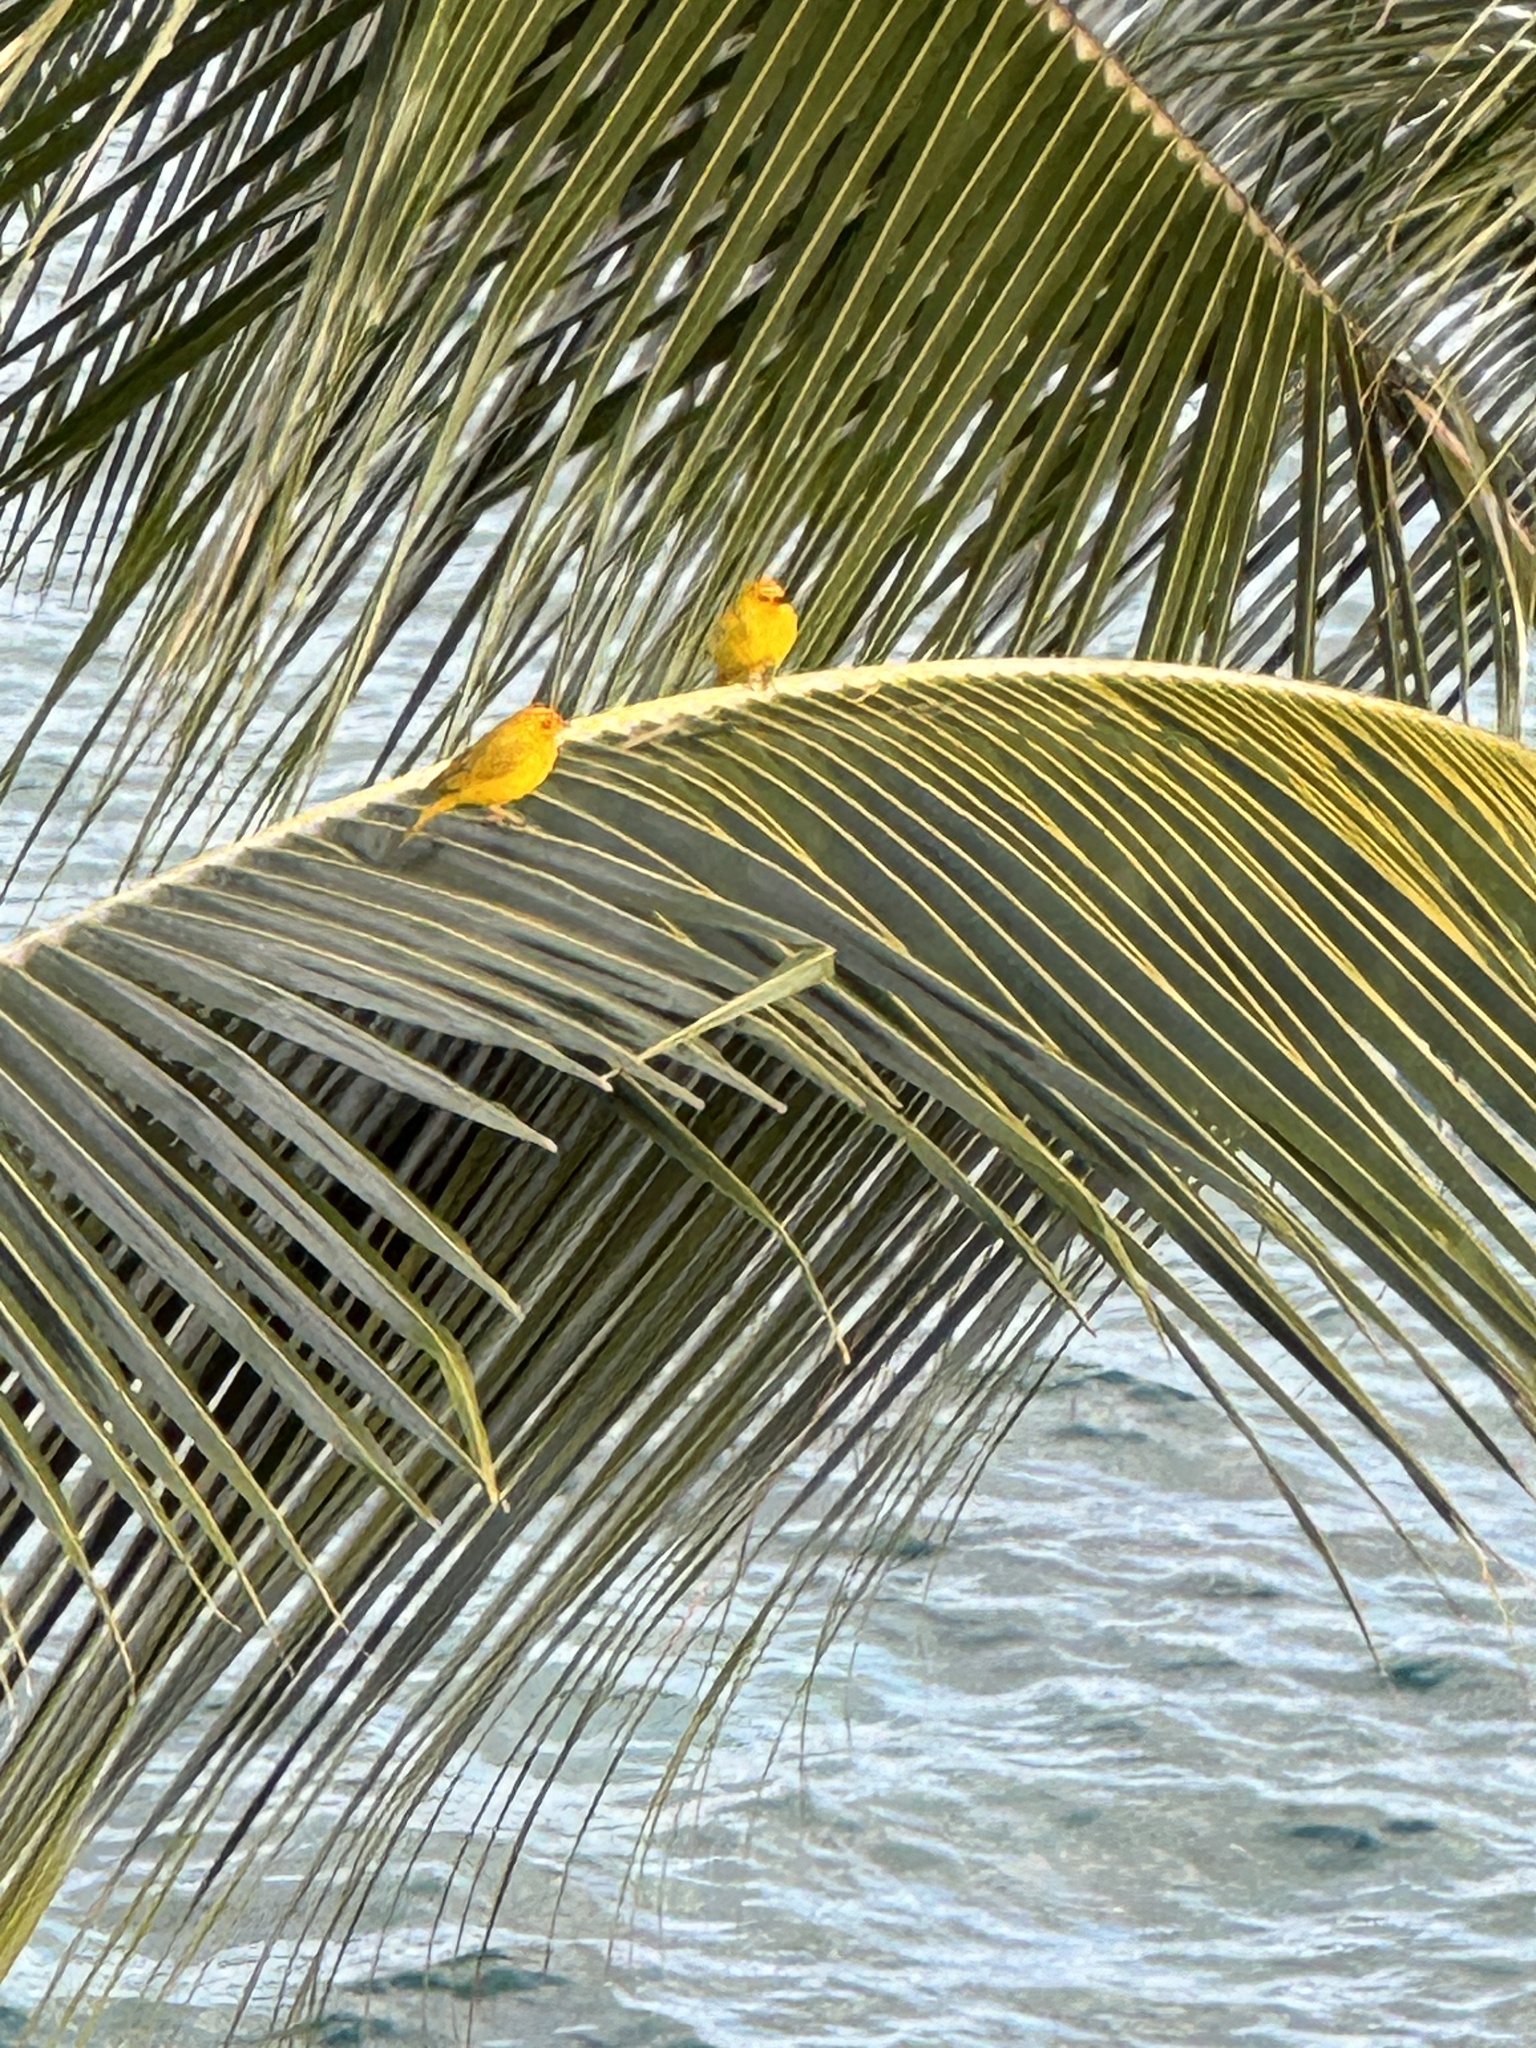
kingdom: Animalia
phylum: Chordata
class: Aves
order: Passeriformes
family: Thraupidae
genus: Sicalis
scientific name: Sicalis flaveola
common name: Saffron finch
